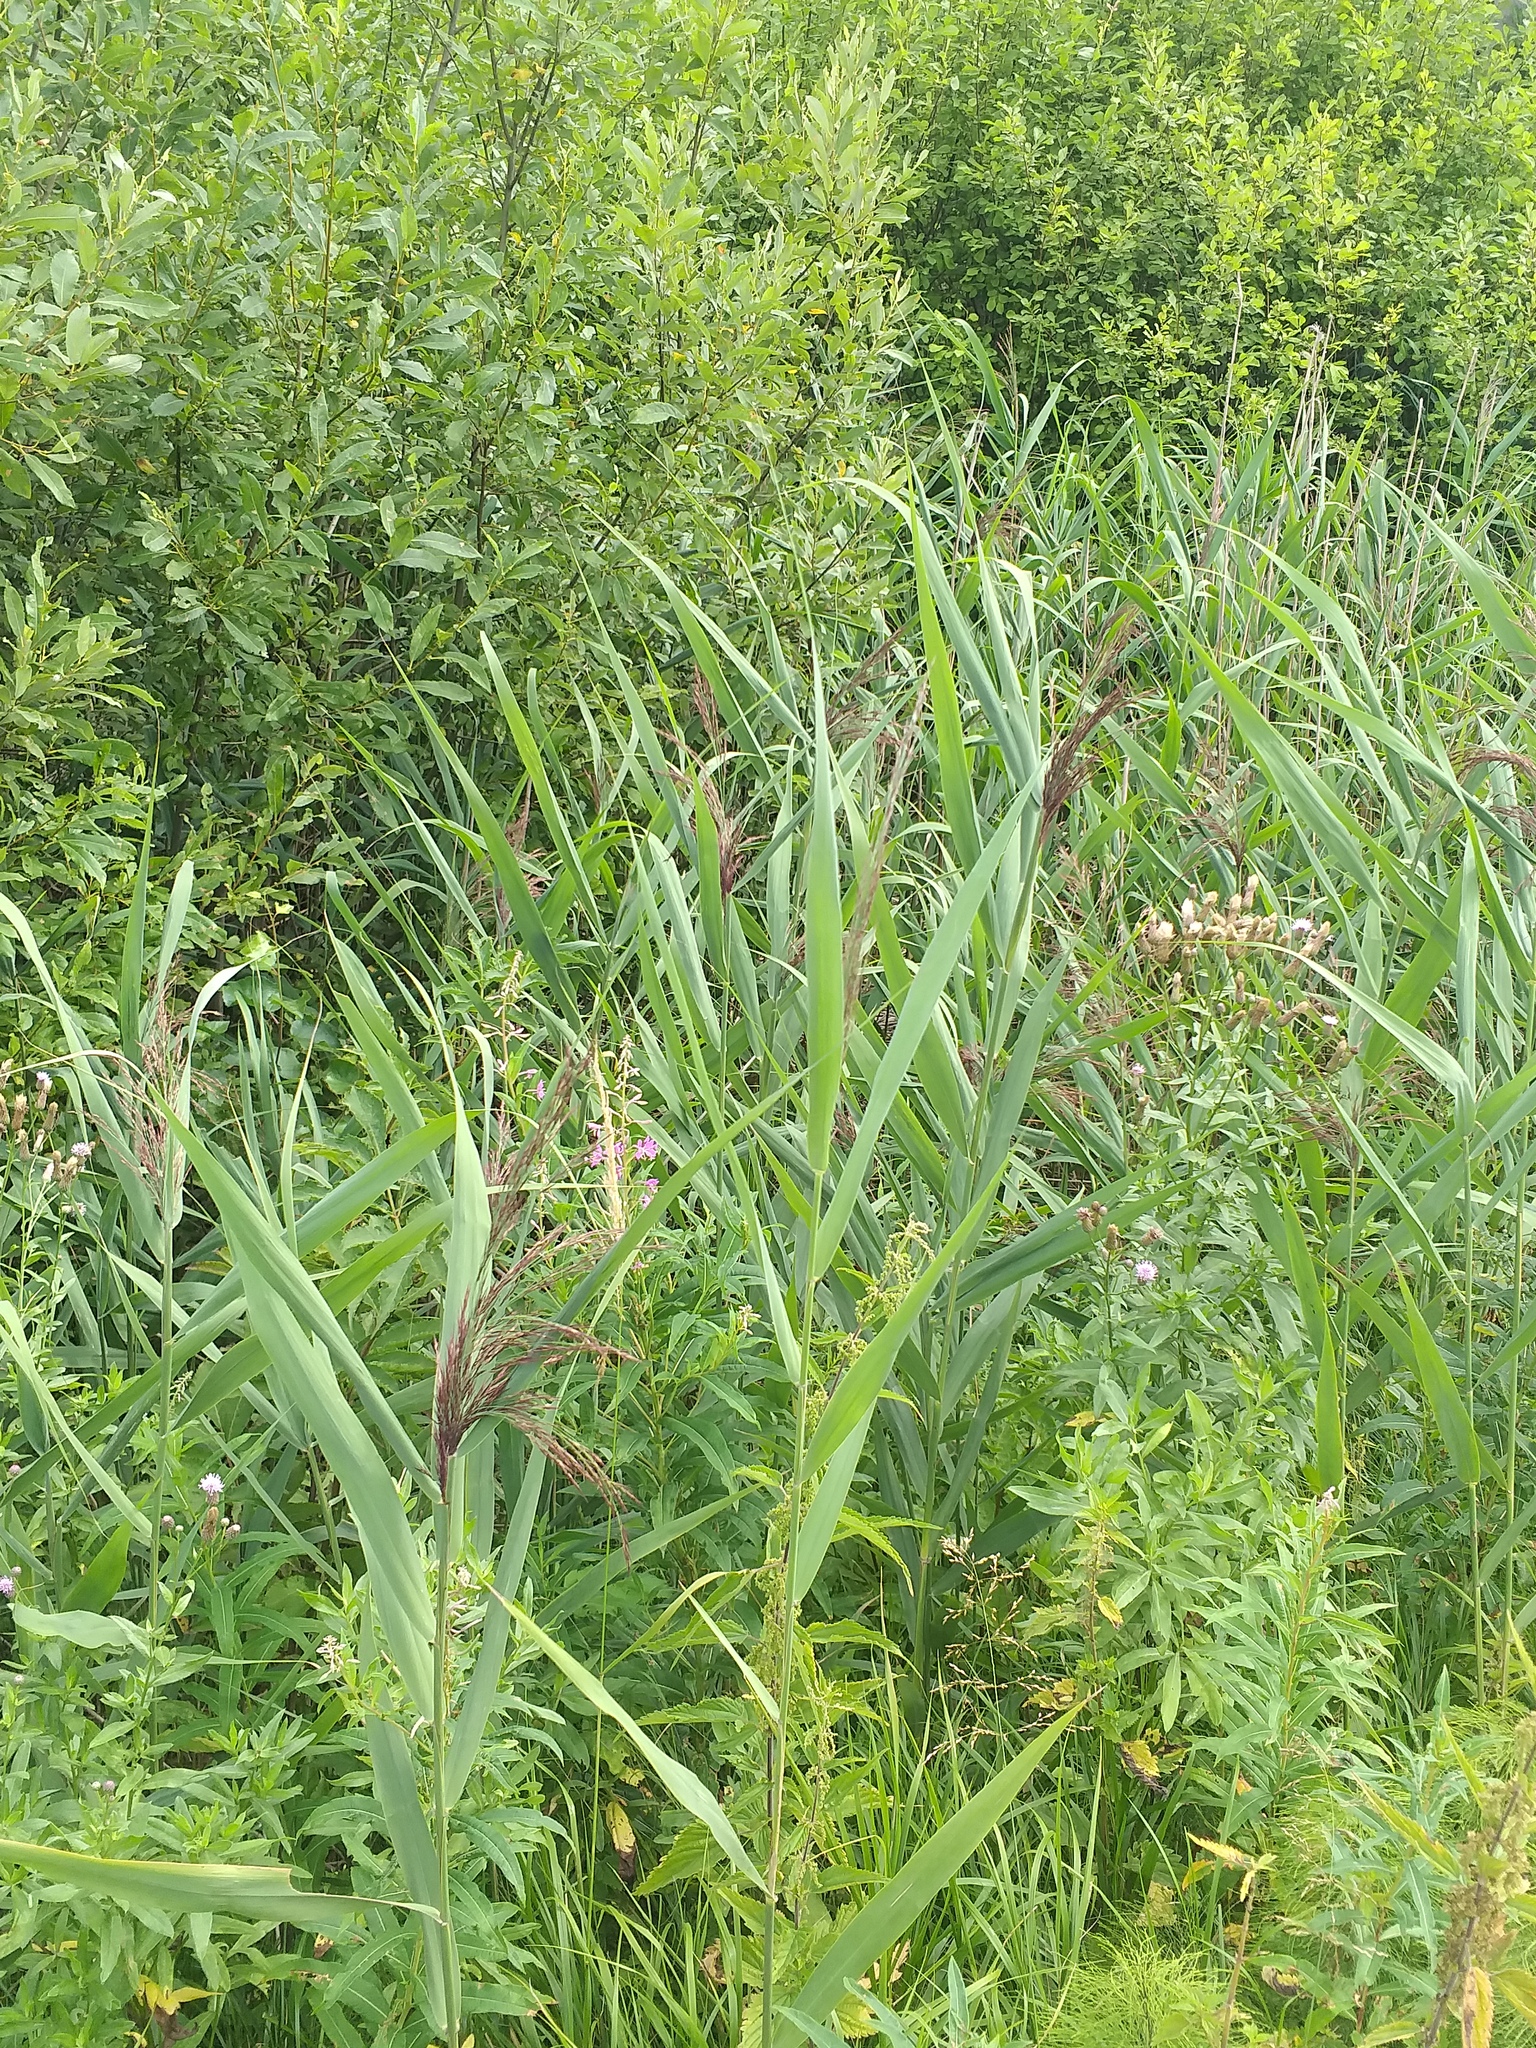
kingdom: Plantae
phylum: Tracheophyta
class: Liliopsida
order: Poales
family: Poaceae
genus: Phragmites
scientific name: Phragmites australis
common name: Common reed
